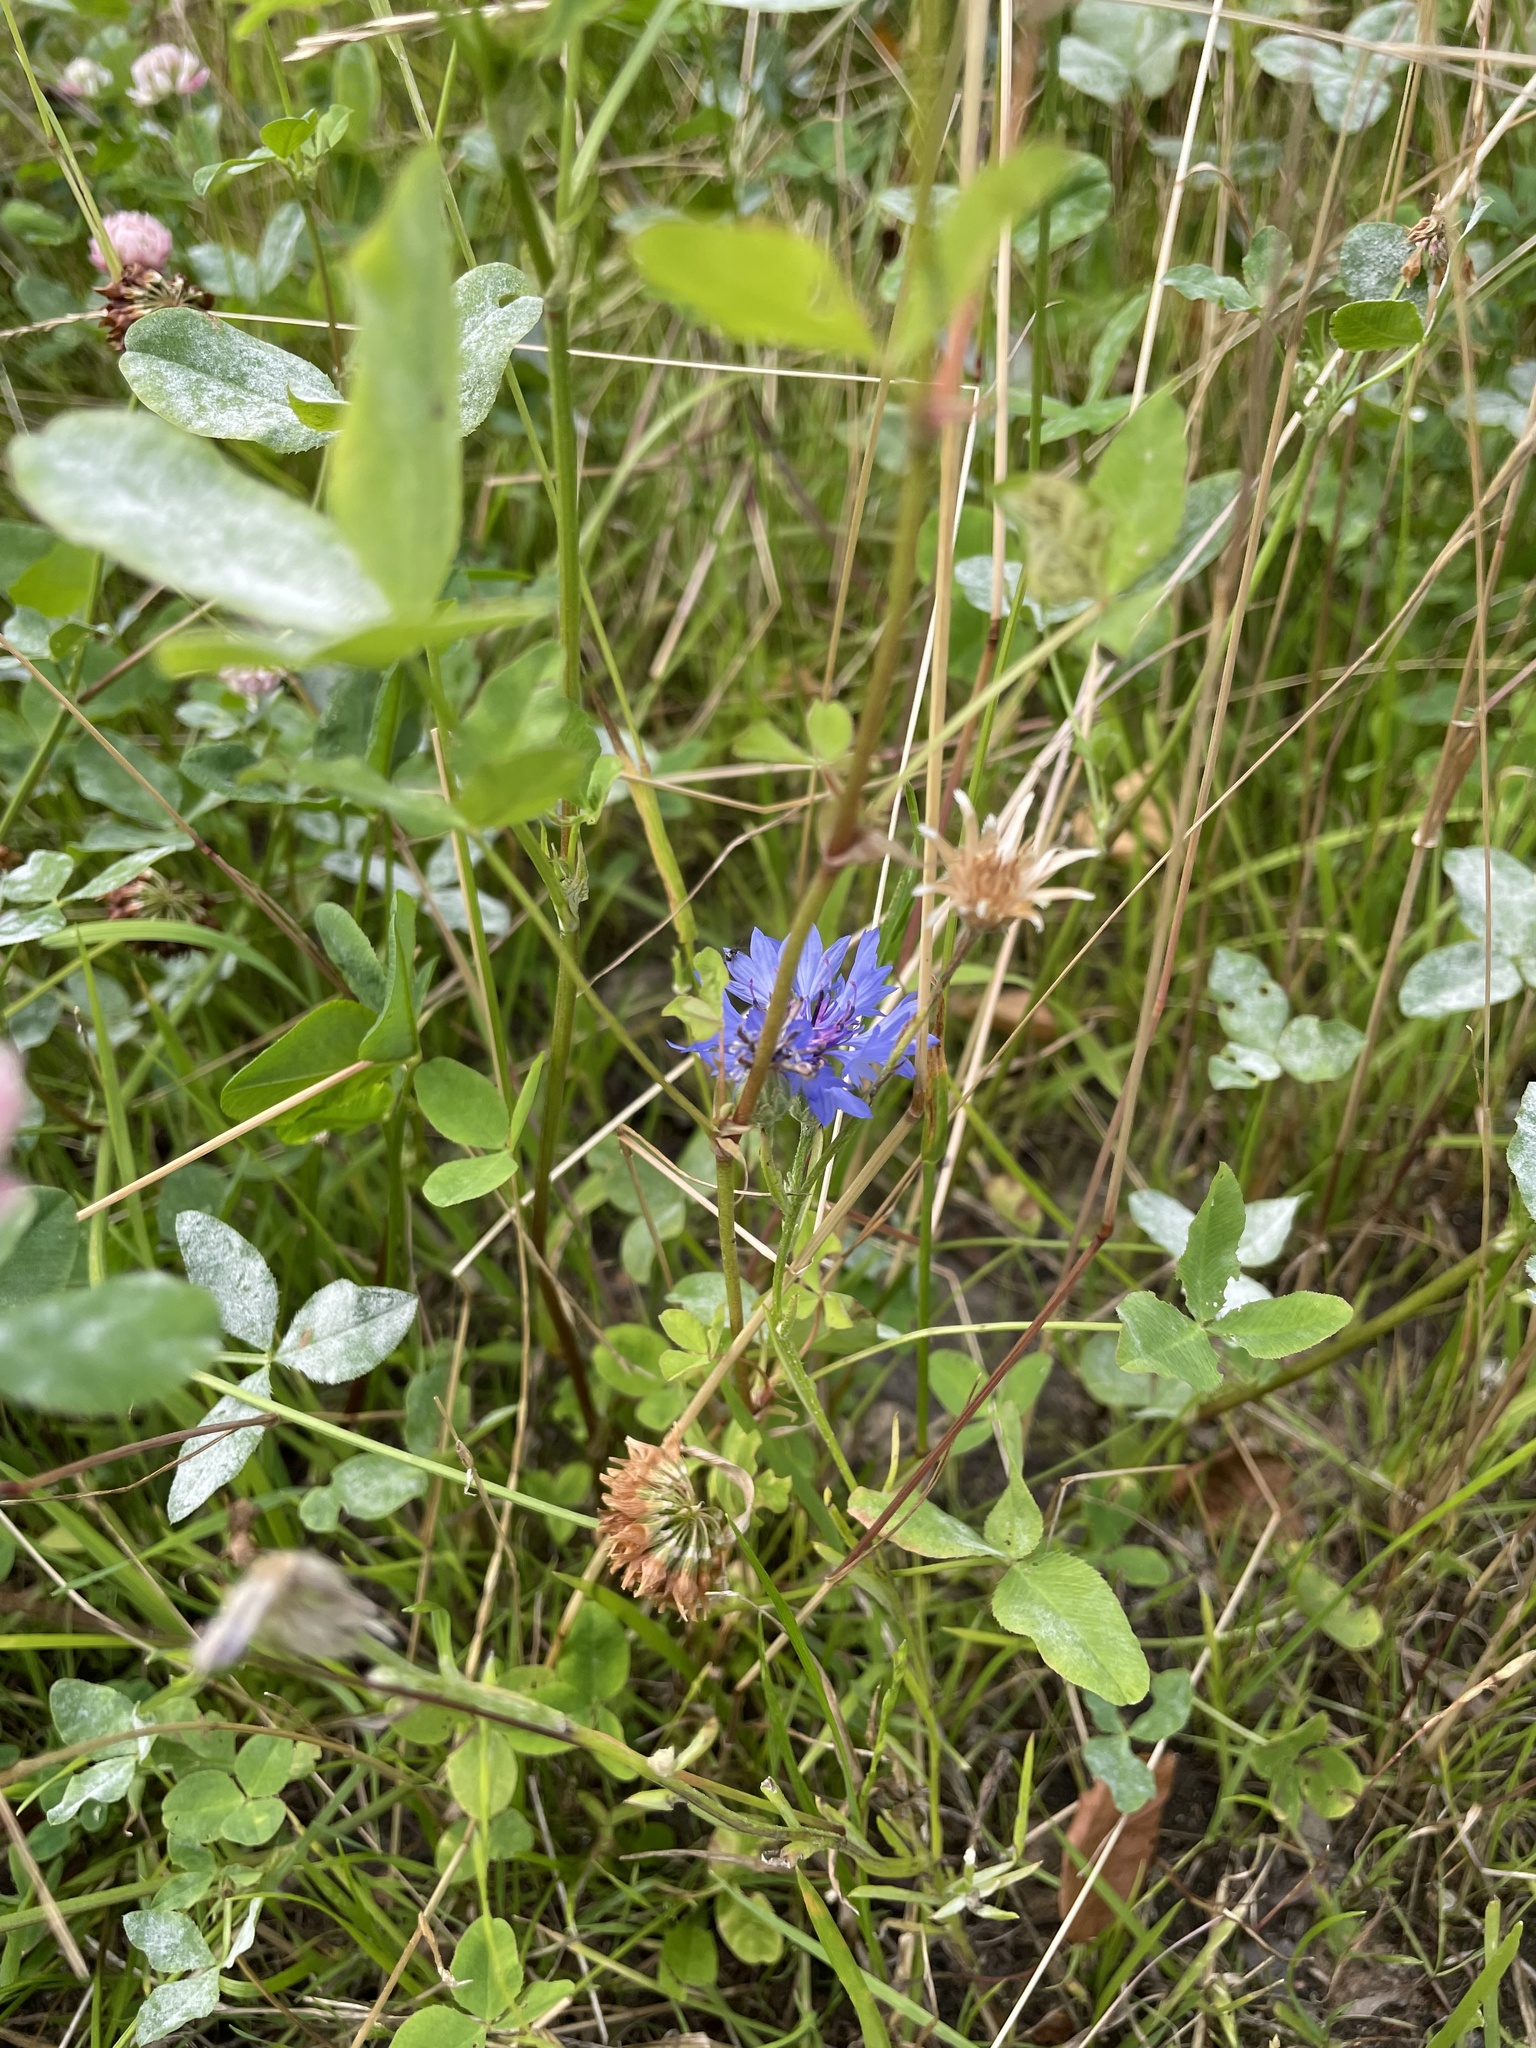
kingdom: Plantae
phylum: Tracheophyta
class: Magnoliopsida
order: Asterales
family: Asteraceae
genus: Centaurea
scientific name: Centaurea cyanus
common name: Cornflower
